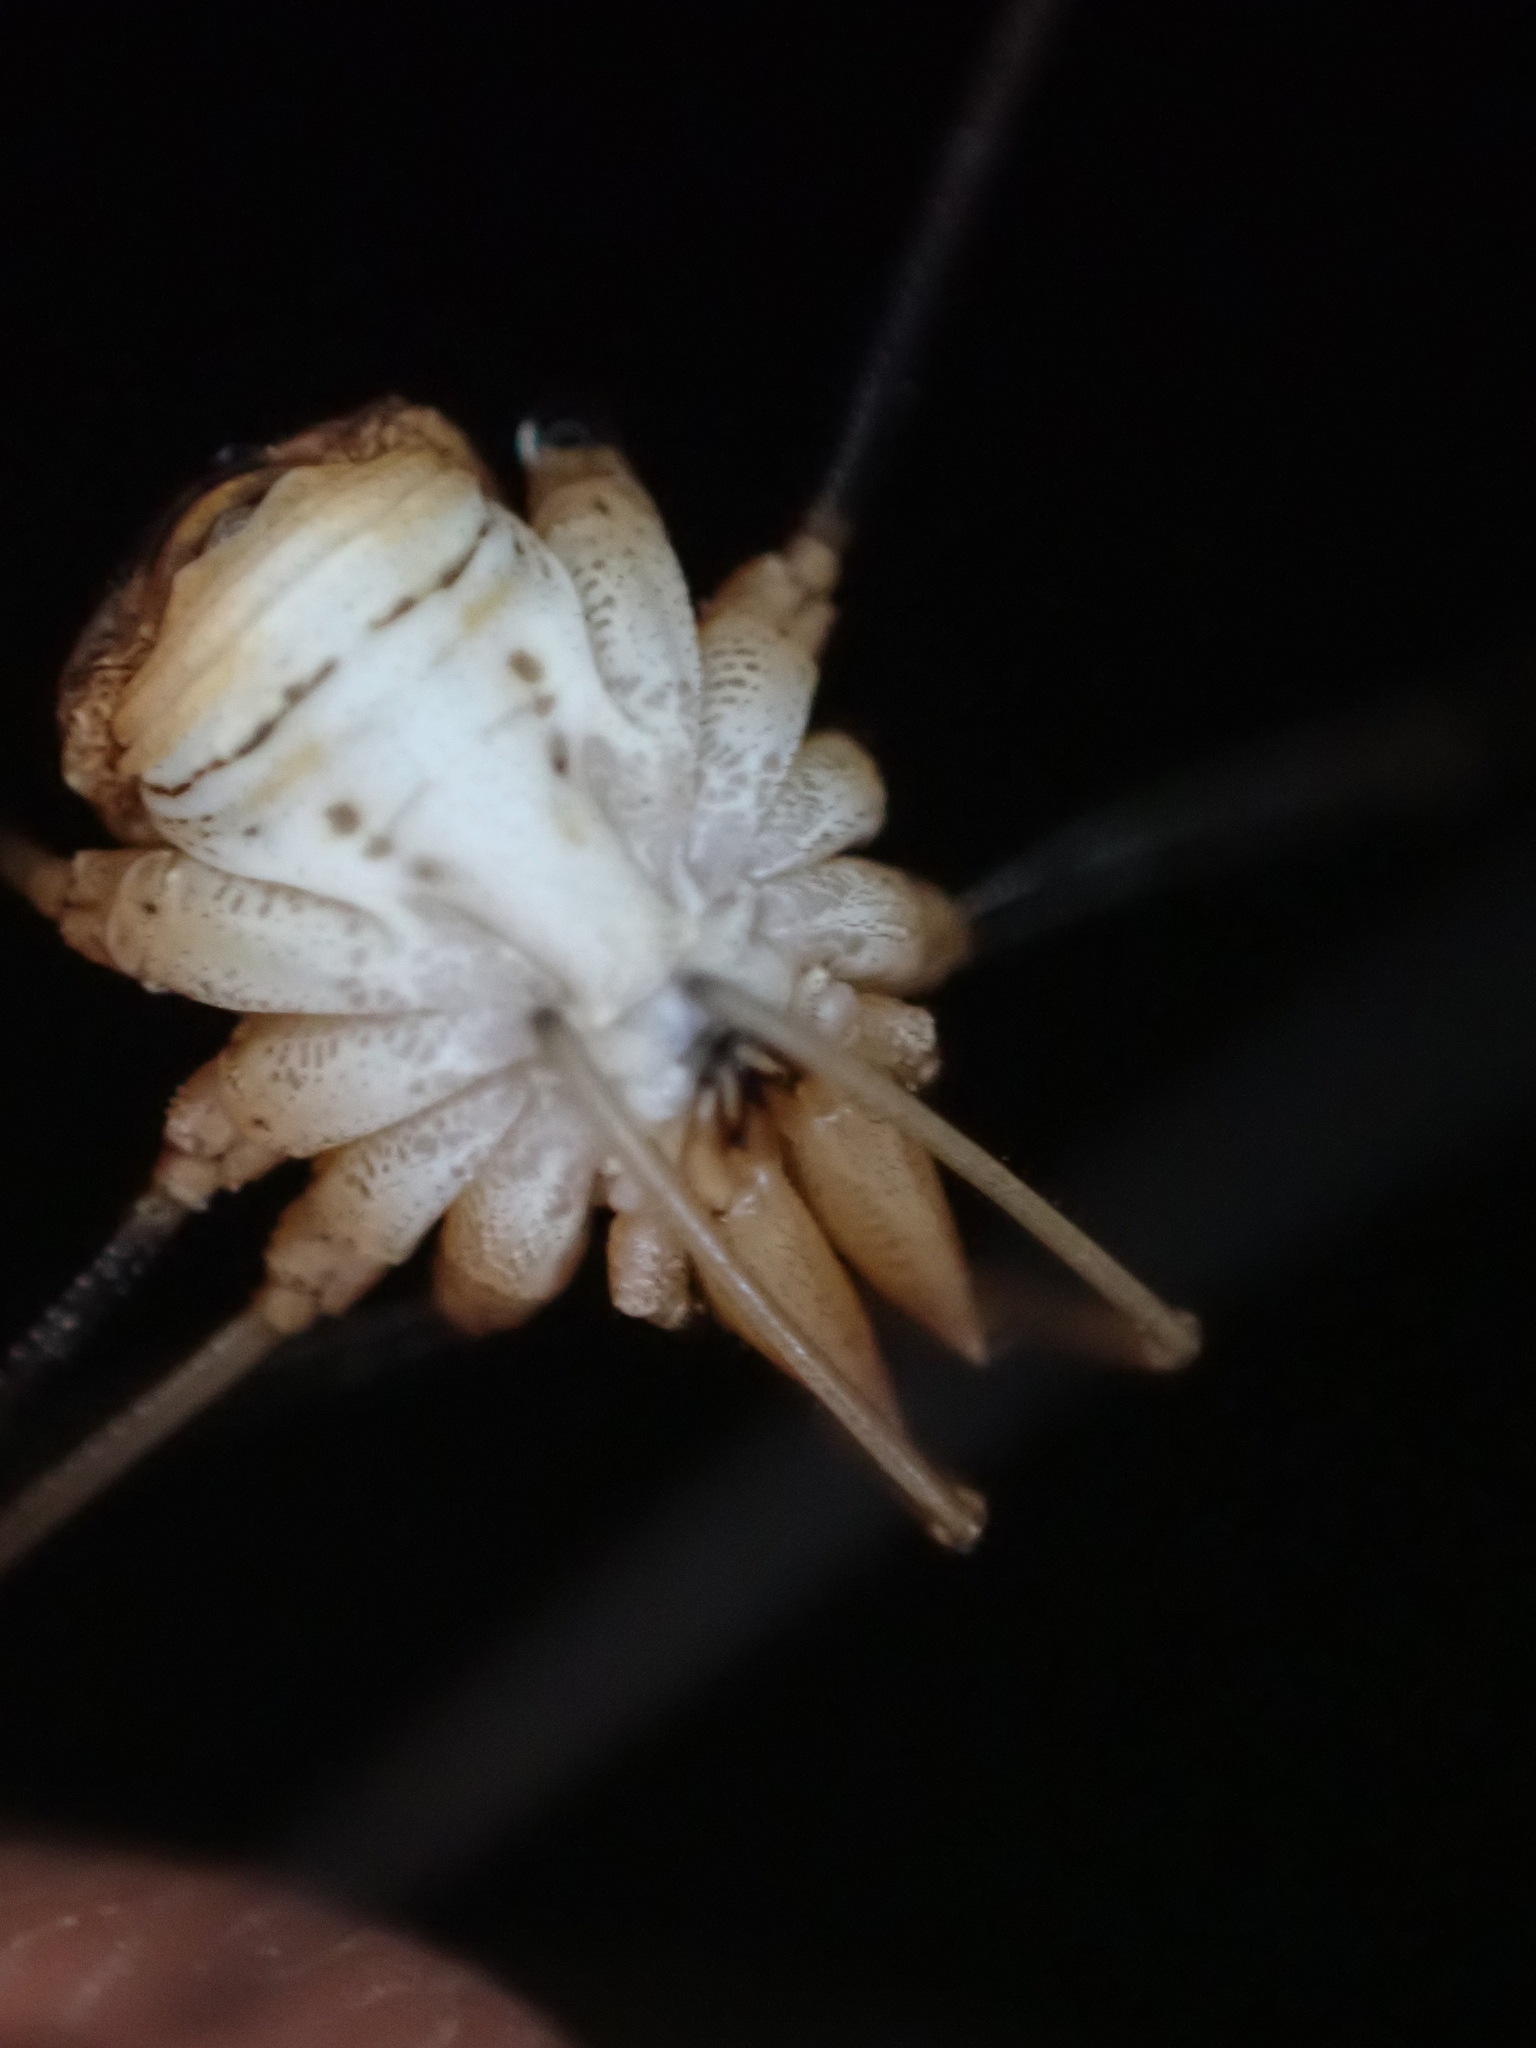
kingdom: Animalia
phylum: Arthropoda
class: Arachnida
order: Opiliones
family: Phalangiidae
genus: Phalangium
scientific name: Phalangium opilio
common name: Daddy longleg
